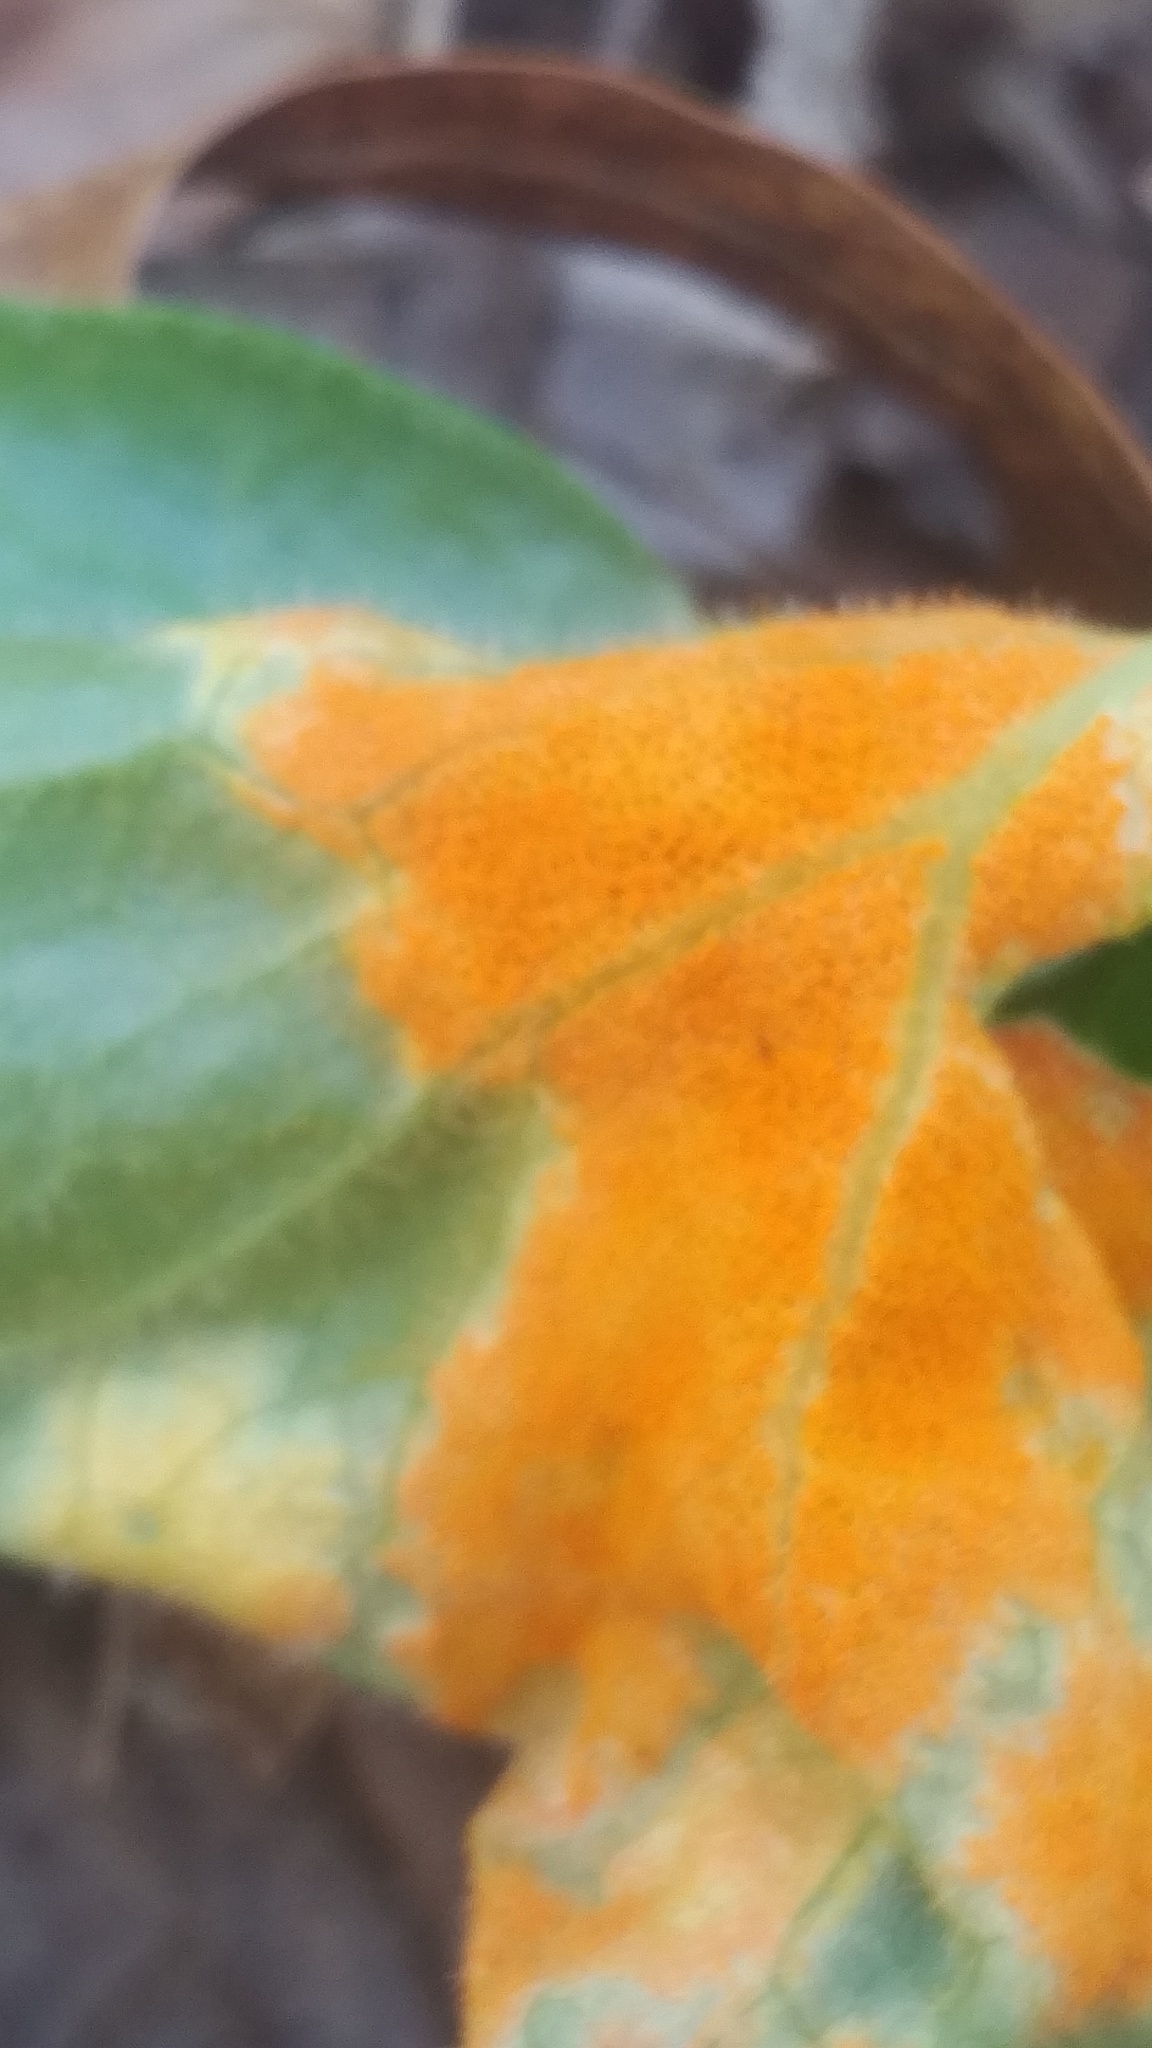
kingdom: Fungi
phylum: Basidiomycota
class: Pucciniomycetes
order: Pucciniales
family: Pucciniaceae
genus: Puccinia
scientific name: Puccinia podophylli
